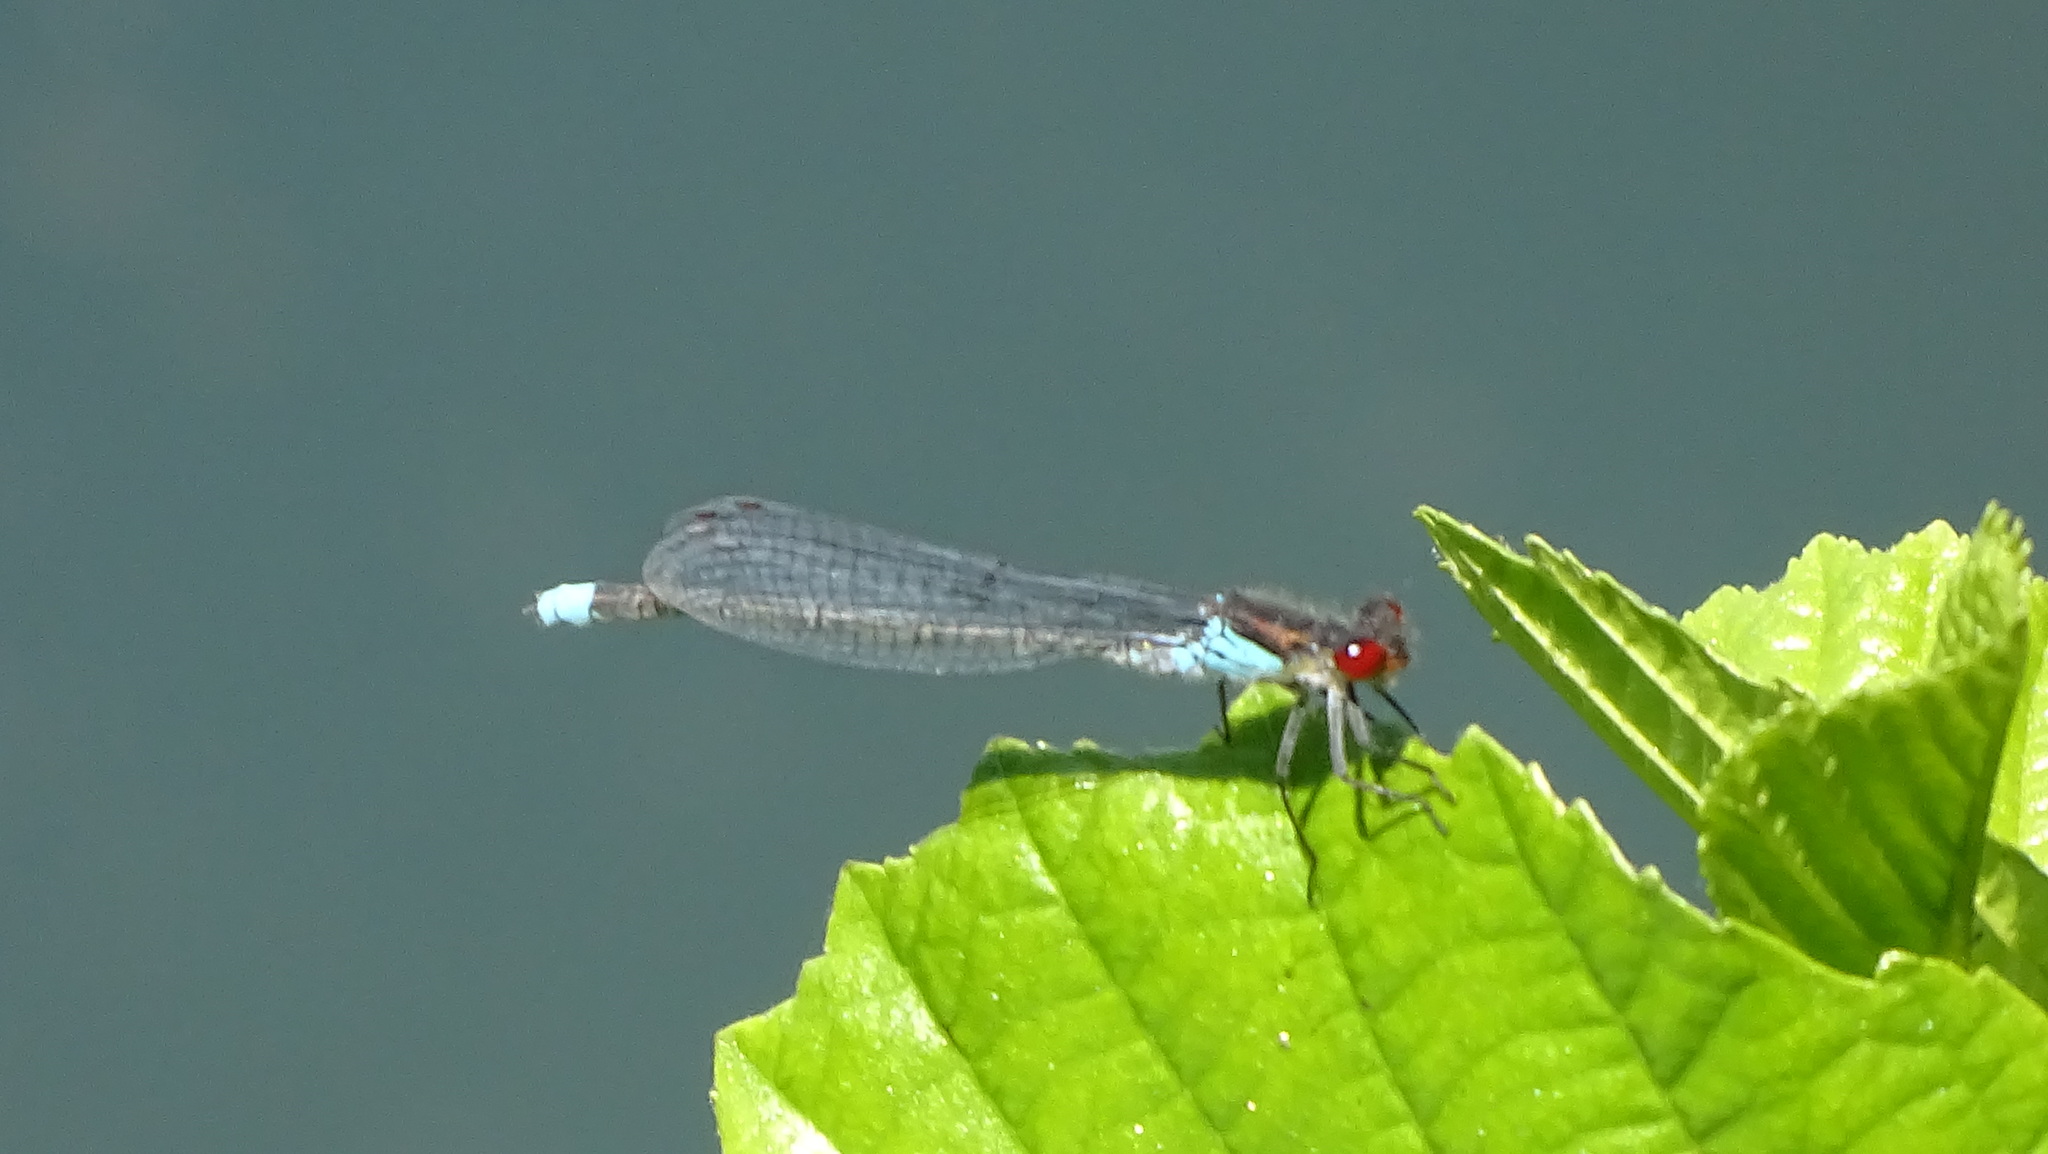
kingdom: Animalia
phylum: Arthropoda
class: Insecta
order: Odonata
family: Coenagrionidae
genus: Erythromma
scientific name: Erythromma najas
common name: Red-eyed damselfly
